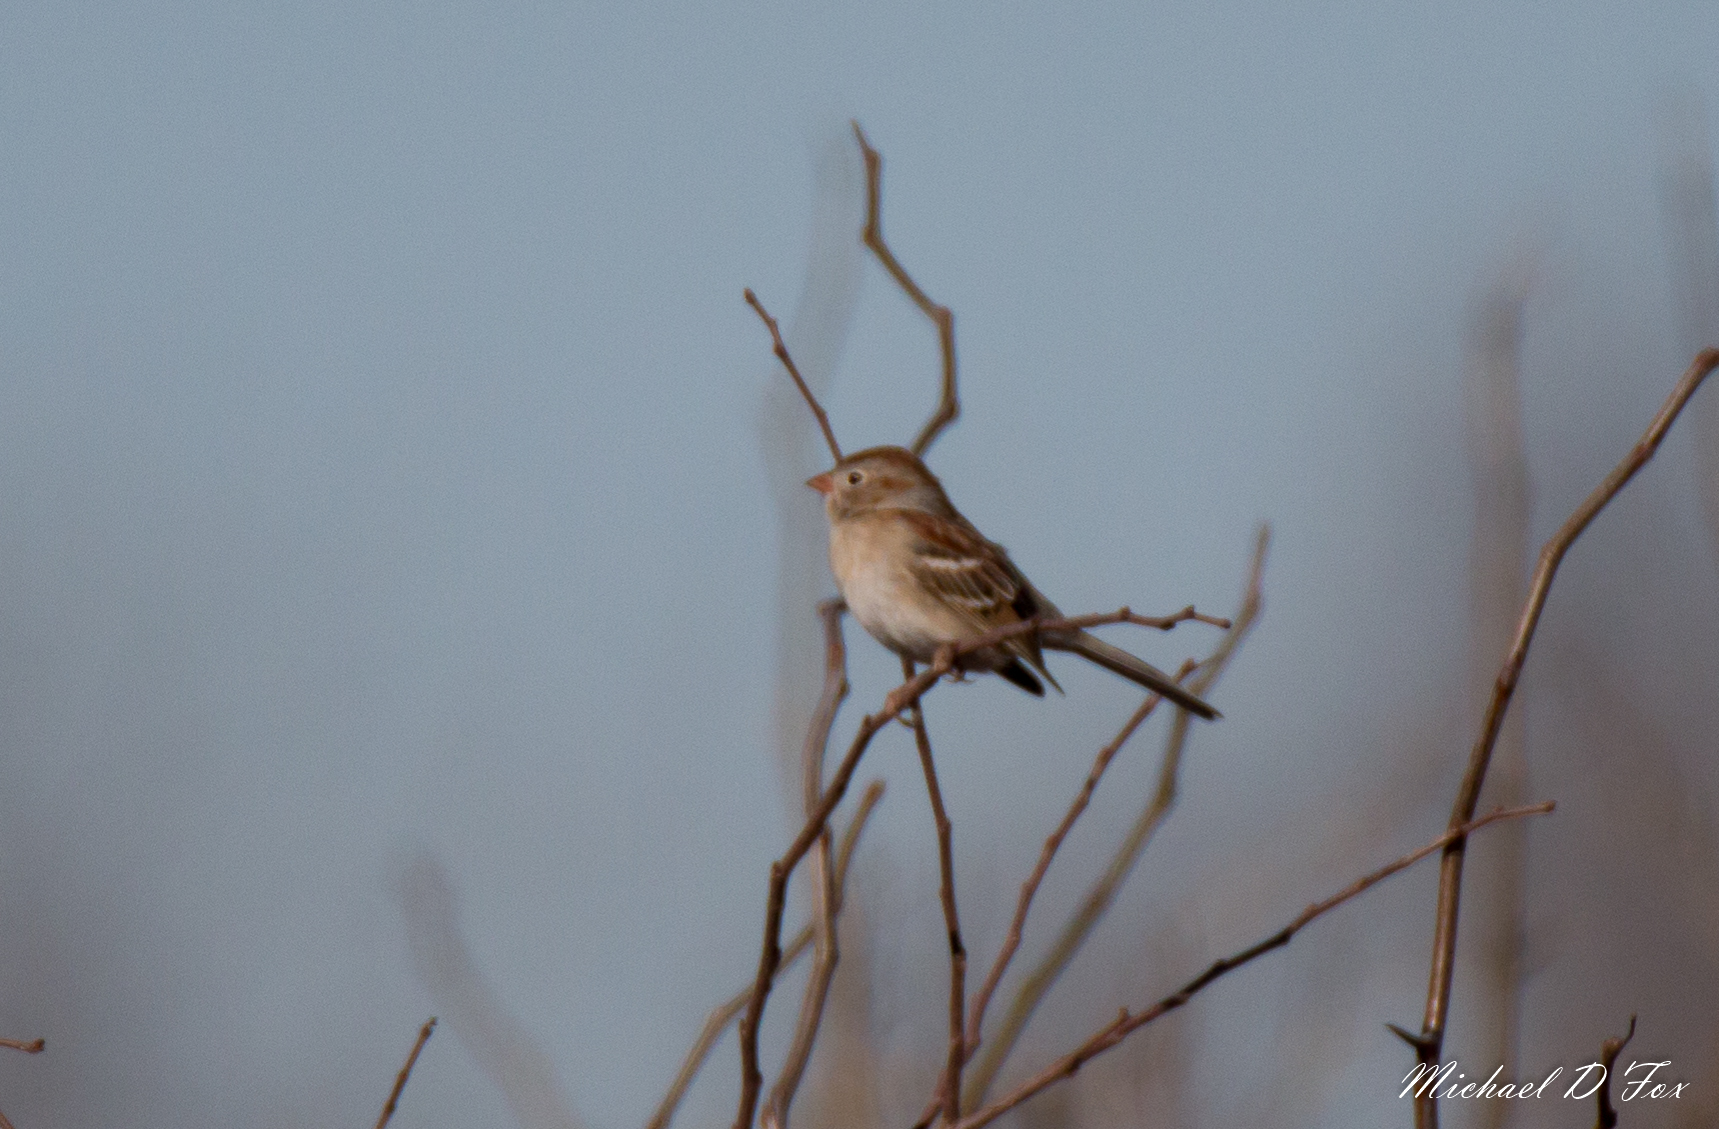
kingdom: Animalia
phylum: Chordata
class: Aves
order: Passeriformes
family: Passerellidae
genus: Spizella
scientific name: Spizella pusilla
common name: Field sparrow
